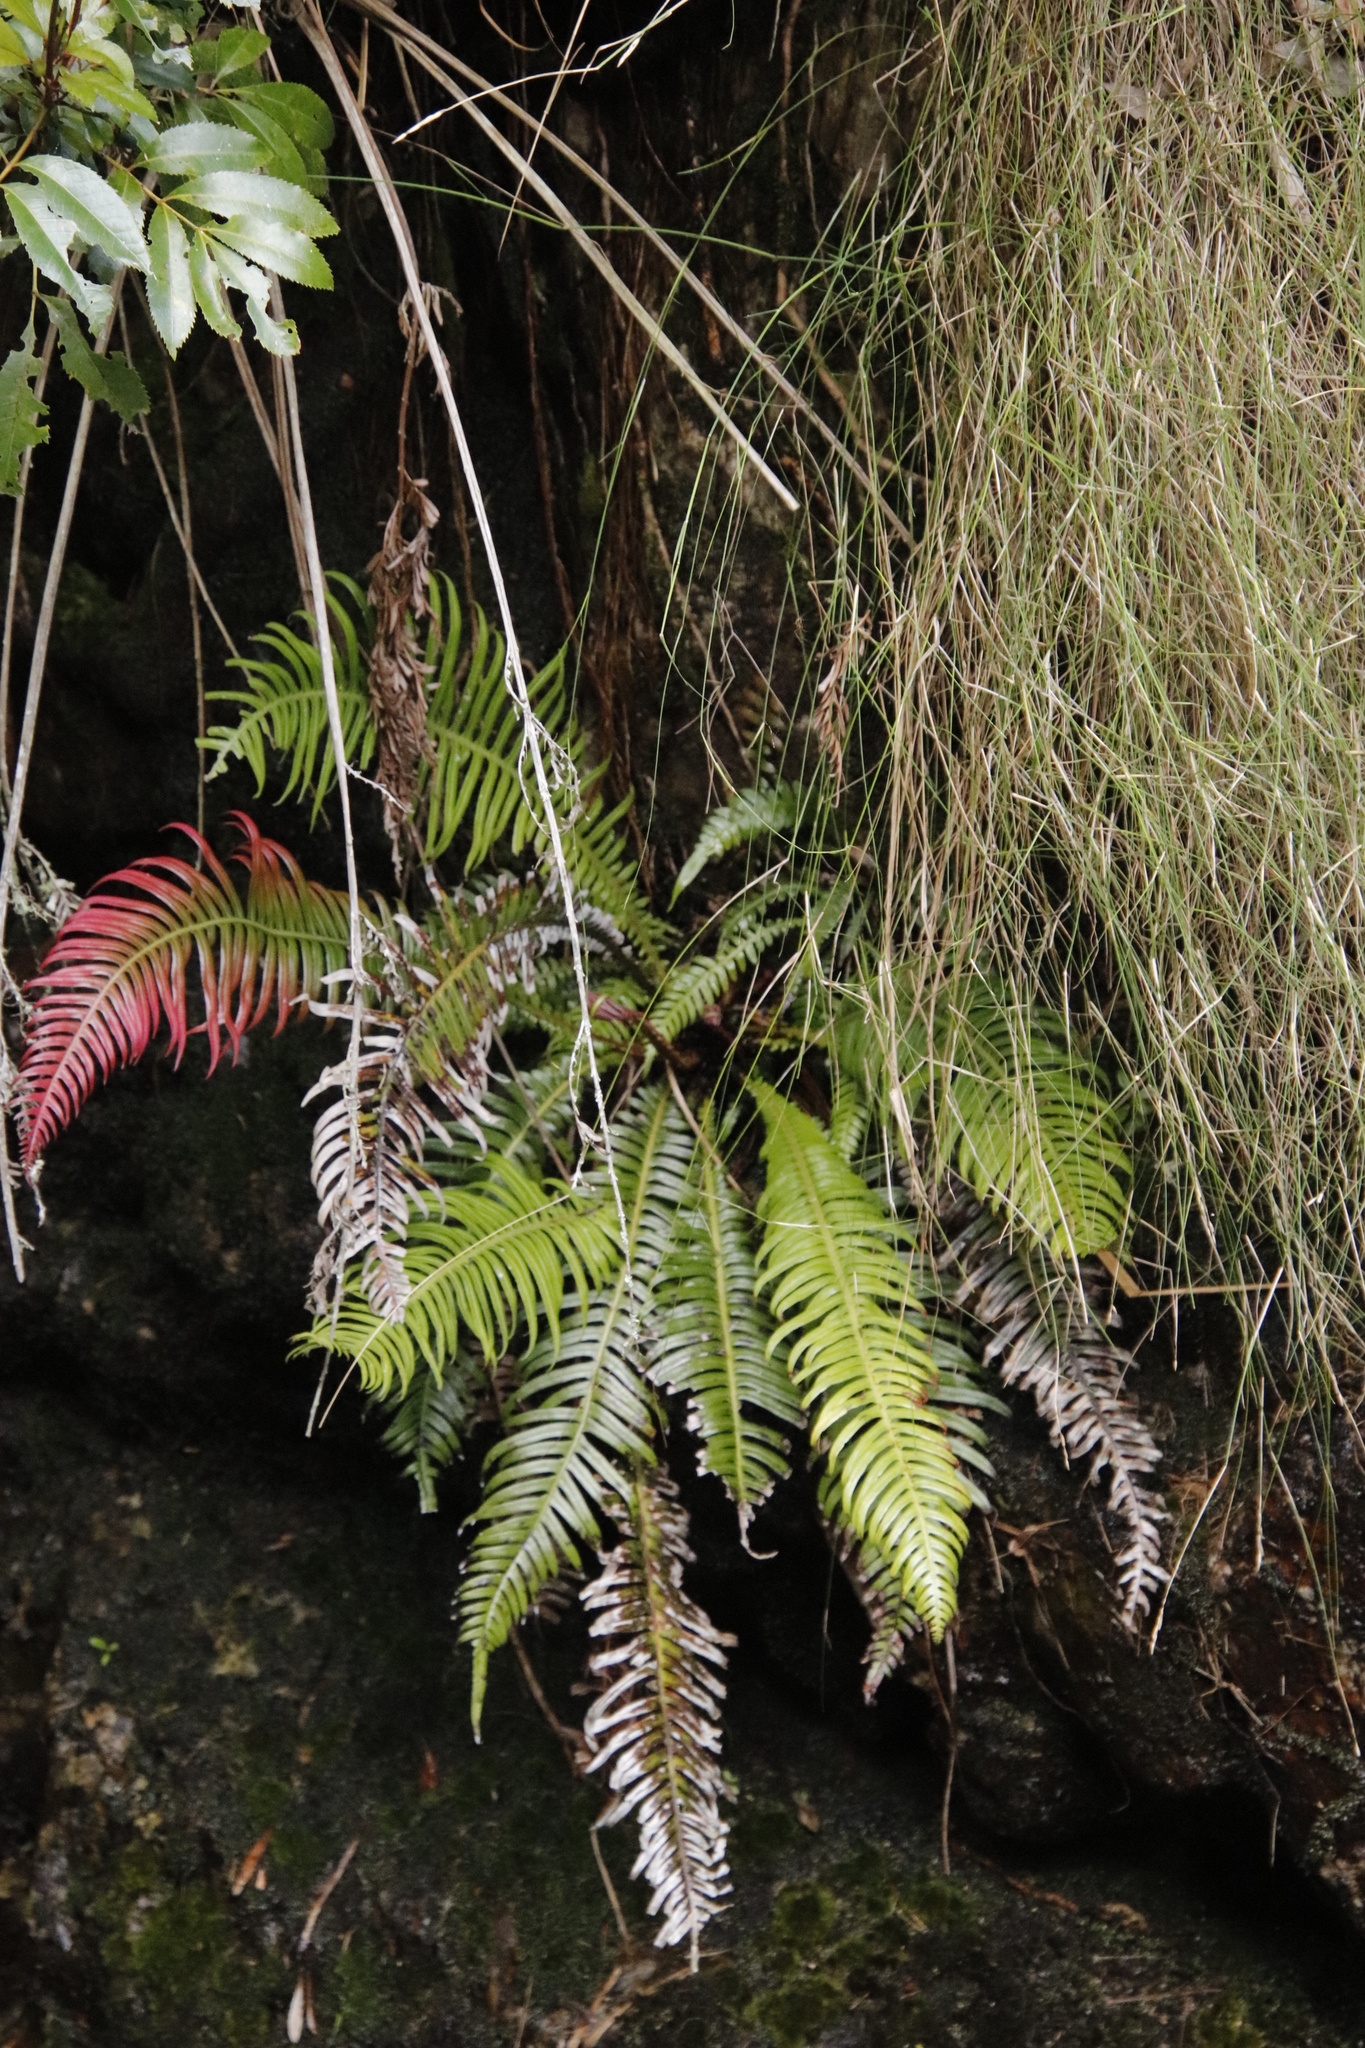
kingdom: Plantae
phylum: Tracheophyta
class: Polypodiopsida
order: Polypodiales
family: Blechnaceae
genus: Lomaridium
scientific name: Lomaridium attenuatum
